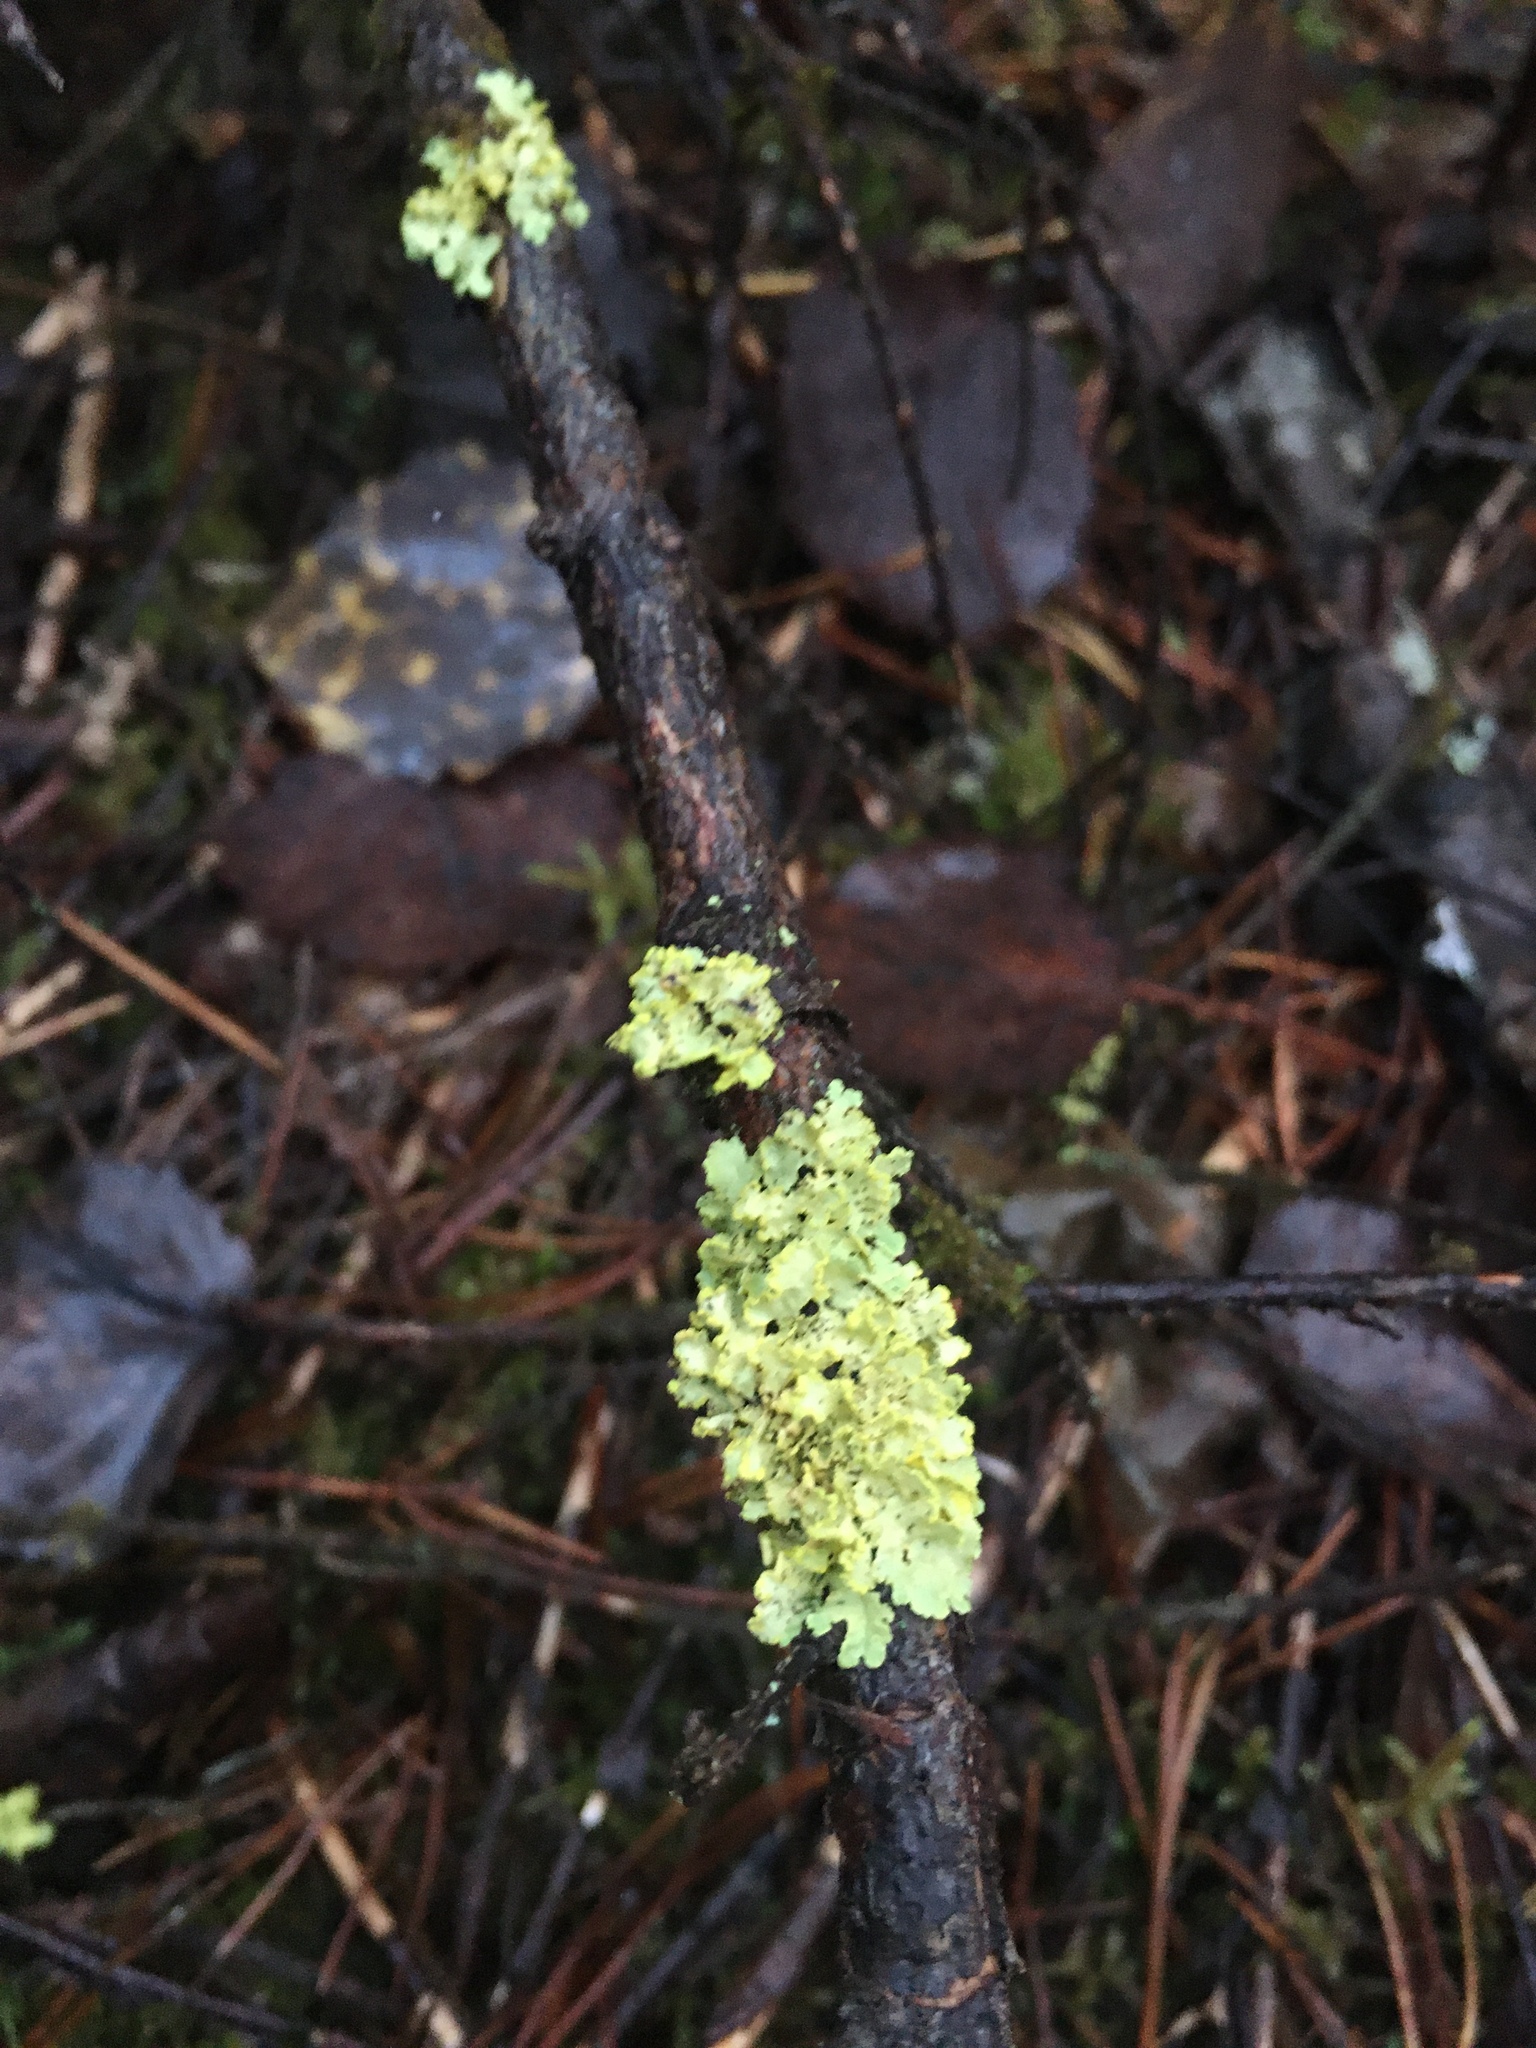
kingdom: Fungi
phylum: Ascomycota
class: Lecanoromycetes
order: Lecanorales
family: Parmeliaceae
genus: Vulpicida
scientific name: Vulpicida pinastri
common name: Powdered sunshine lichen
